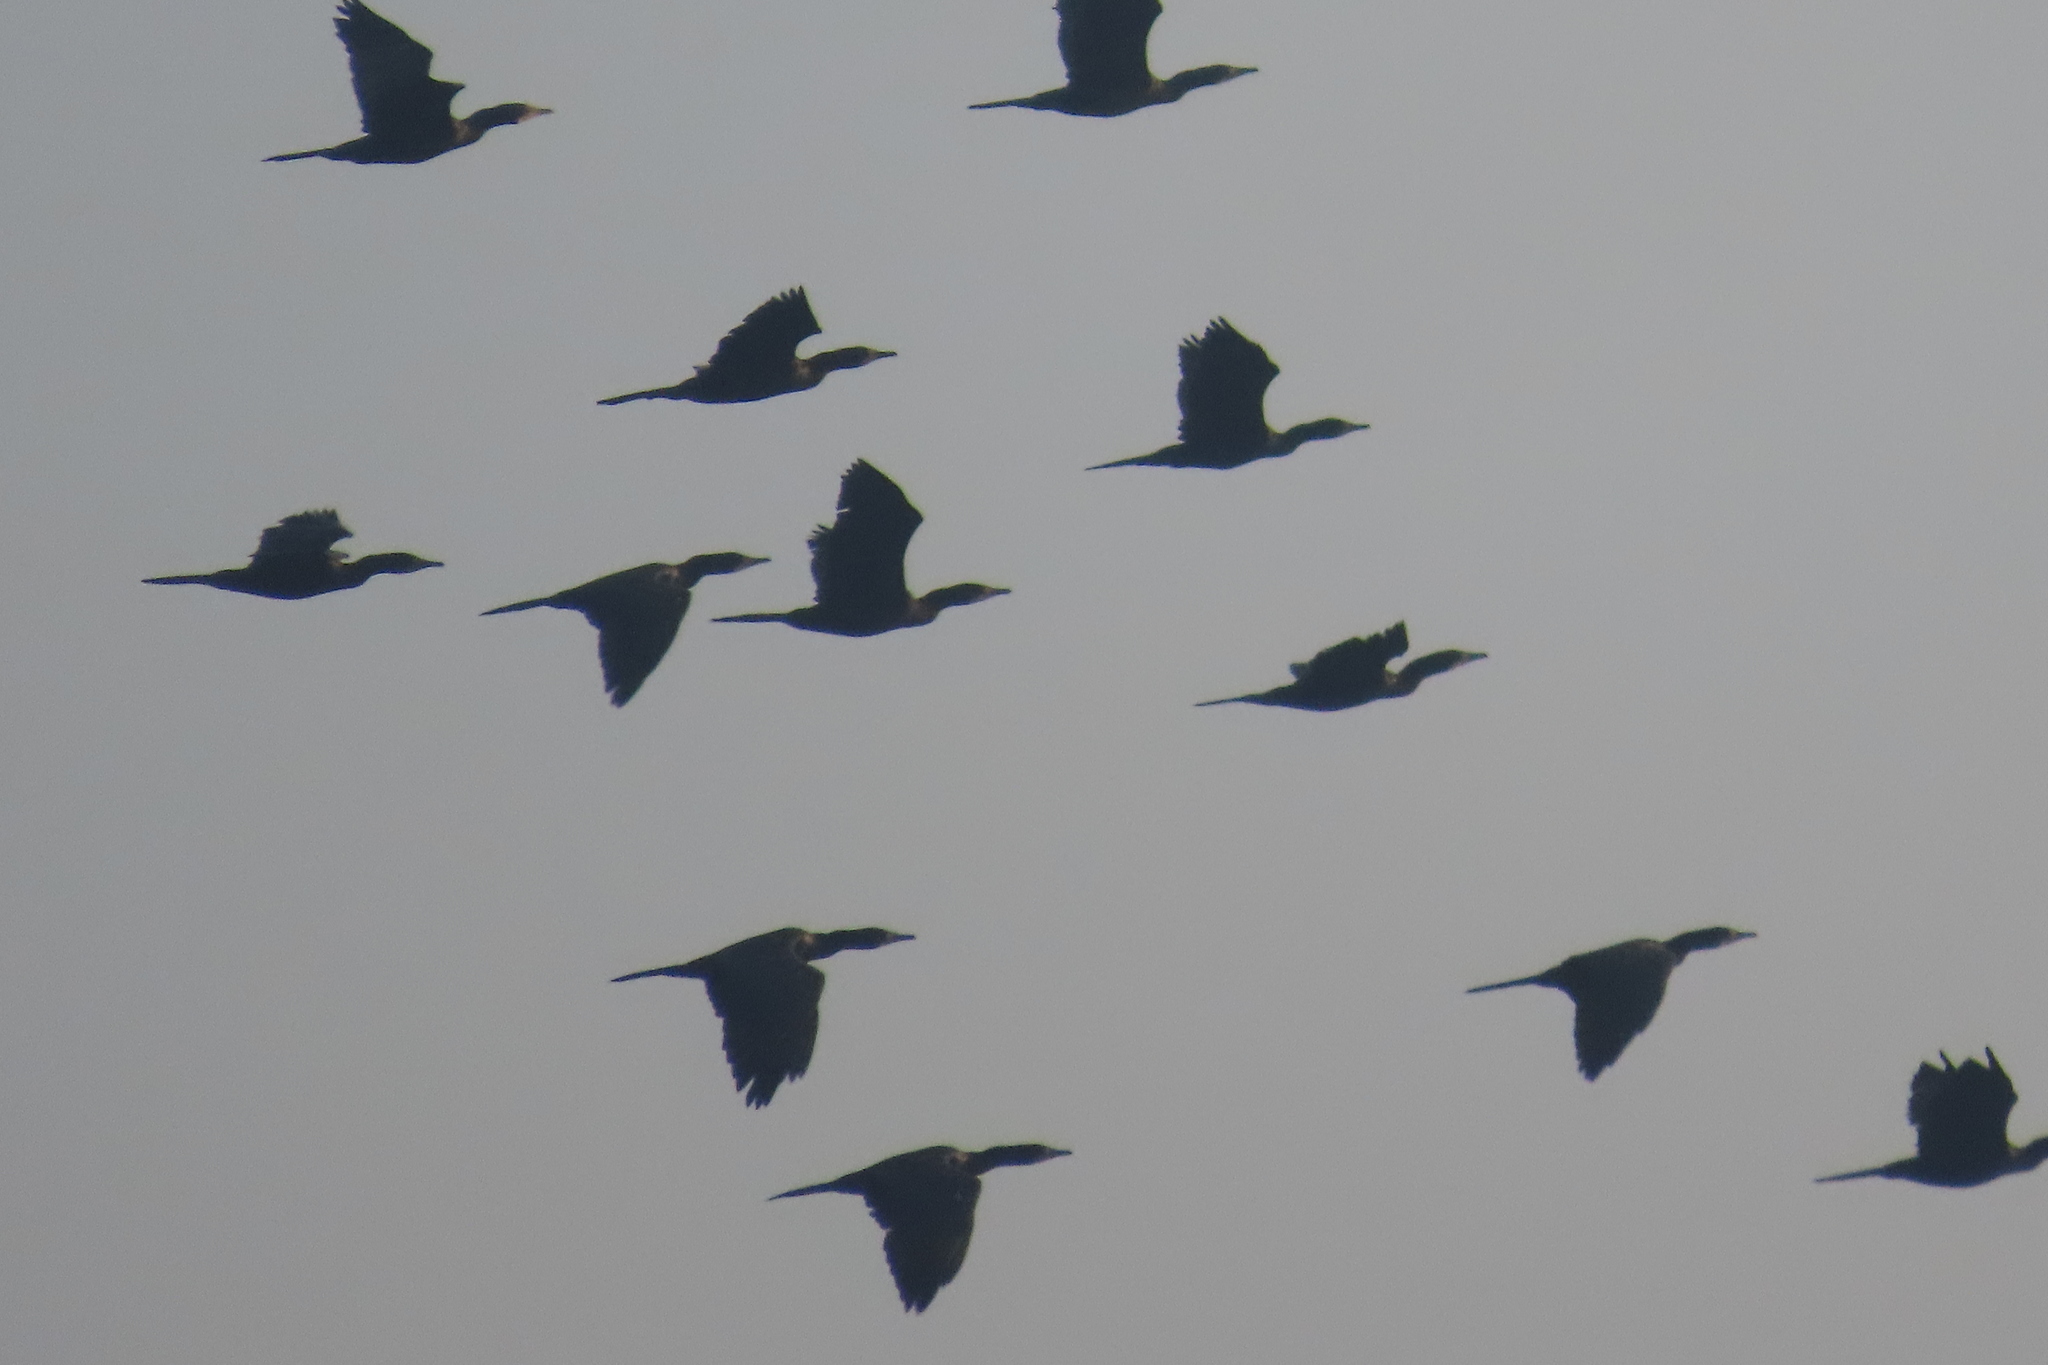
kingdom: Animalia
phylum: Chordata
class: Aves
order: Suliformes
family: Phalacrocoracidae
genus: Microcarbo
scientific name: Microcarbo niger
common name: Little cormorant
